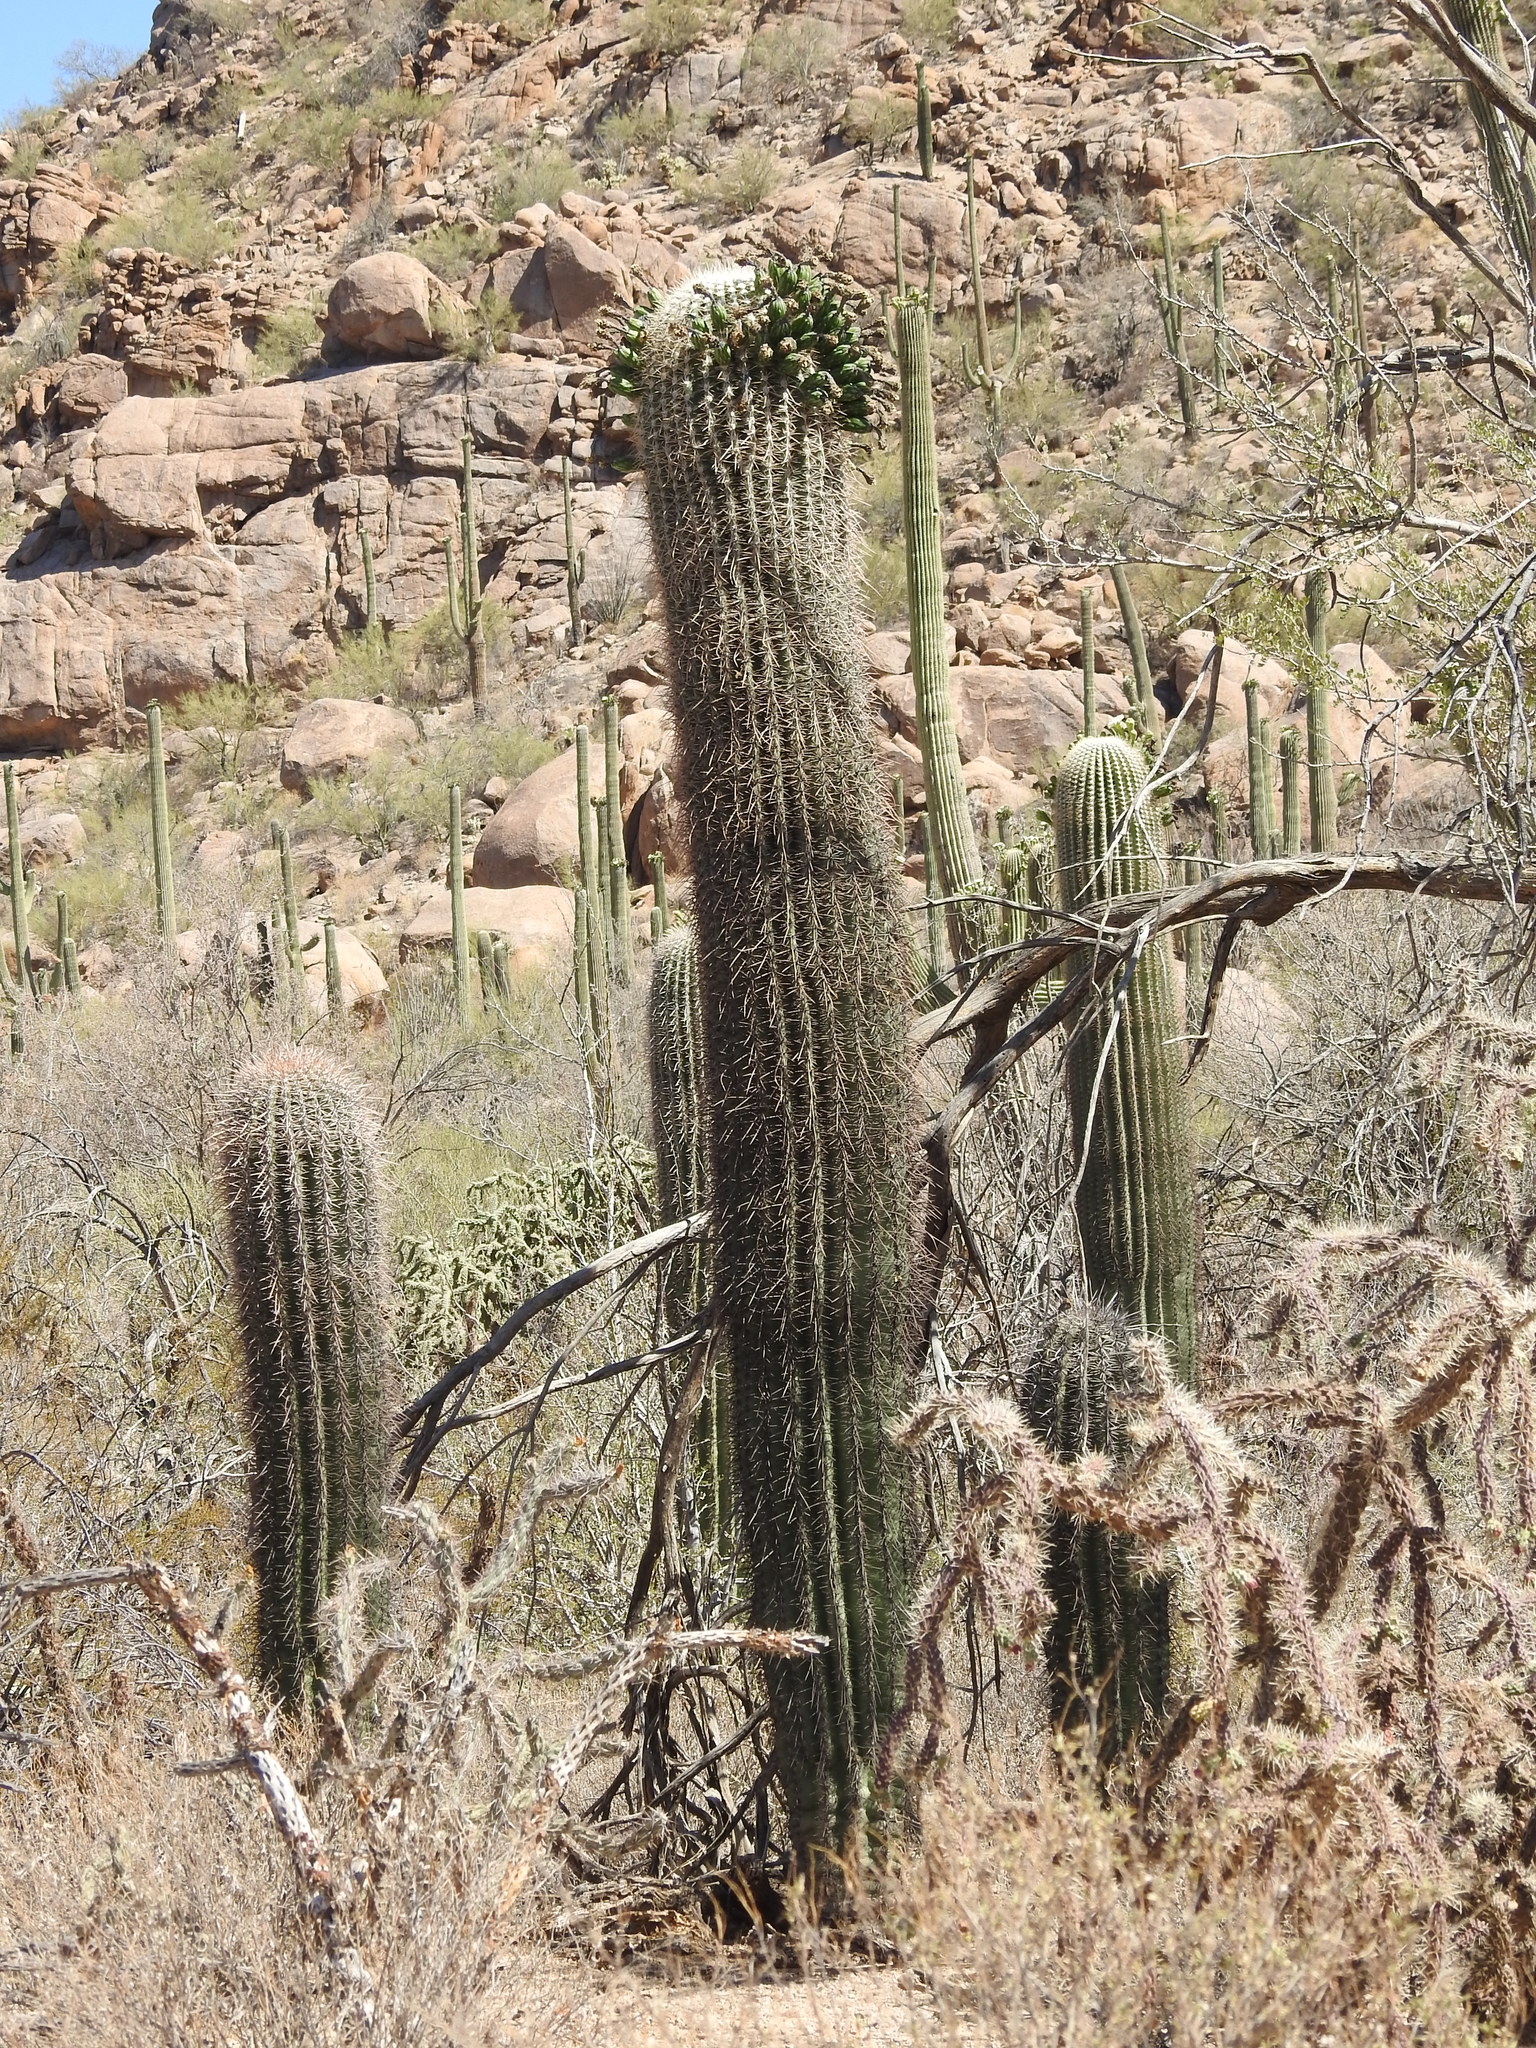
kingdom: Plantae
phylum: Tracheophyta
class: Magnoliopsida
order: Caryophyllales
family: Cactaceae
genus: Carnegiea
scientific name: Carnegiea gigantea
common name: Saguaro
